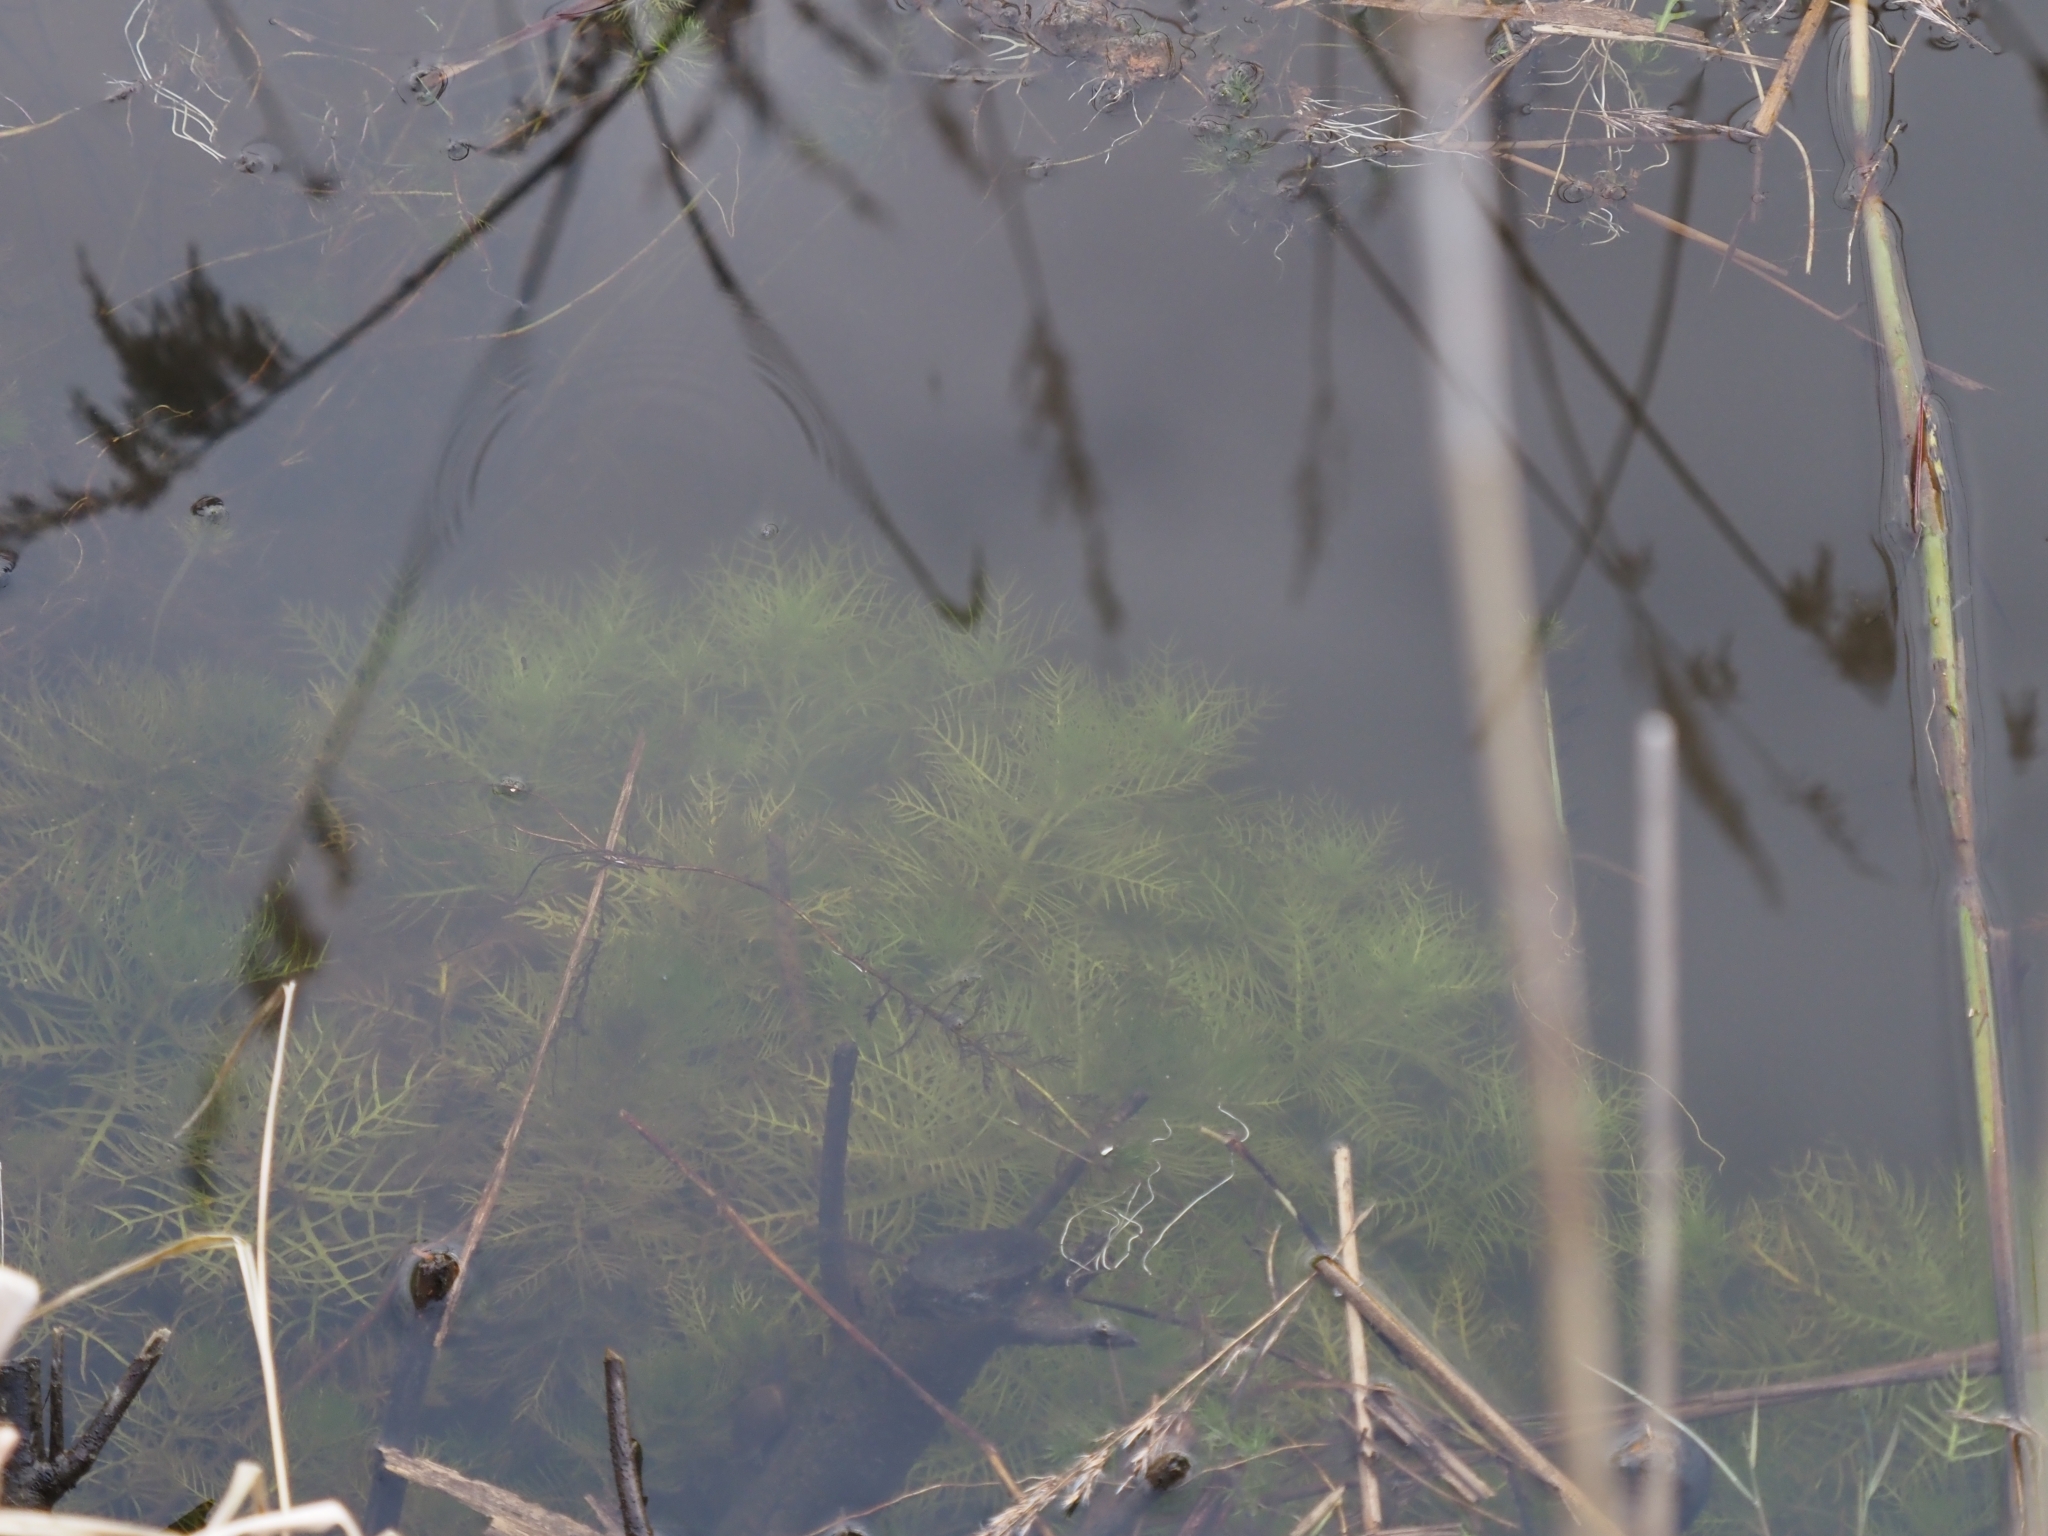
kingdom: Plantae
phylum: Tracheophyta
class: Magnoliopsida
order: Ericales
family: Primulaceae
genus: Hottonia
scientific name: Hottonia palustris
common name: Water-violet
